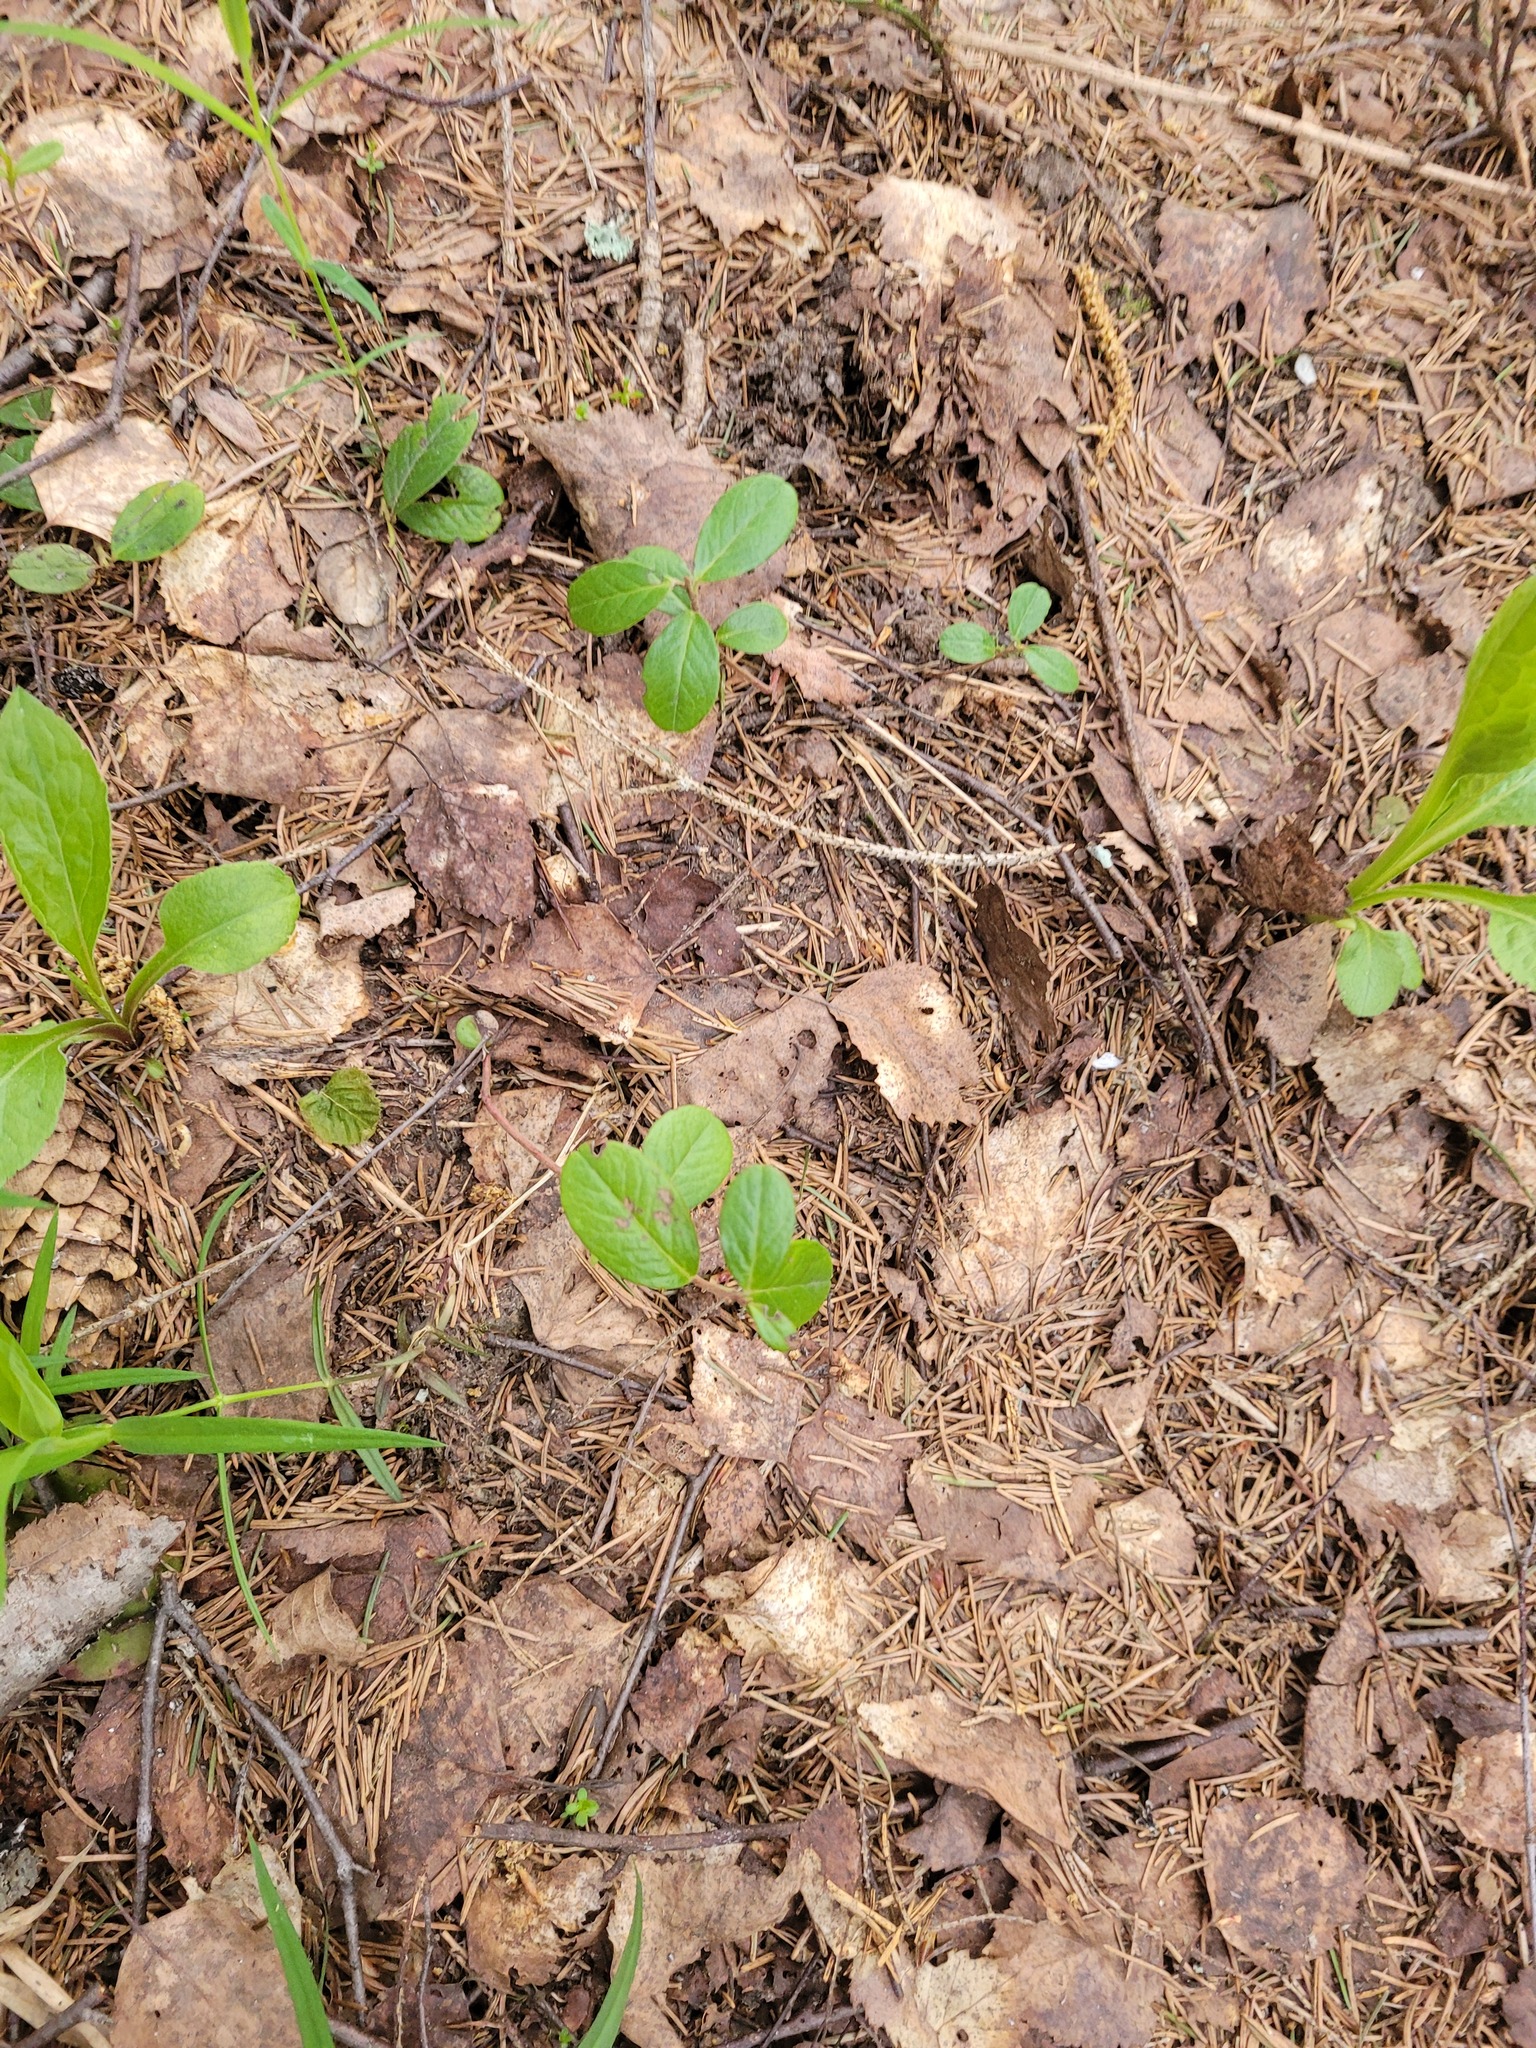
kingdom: Plantae
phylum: Tracheophyta
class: Magnoliopsida
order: Ericales
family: Ericaceae
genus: Vaccinium
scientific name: Vaccinium vitis-idaea
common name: Cowberry
